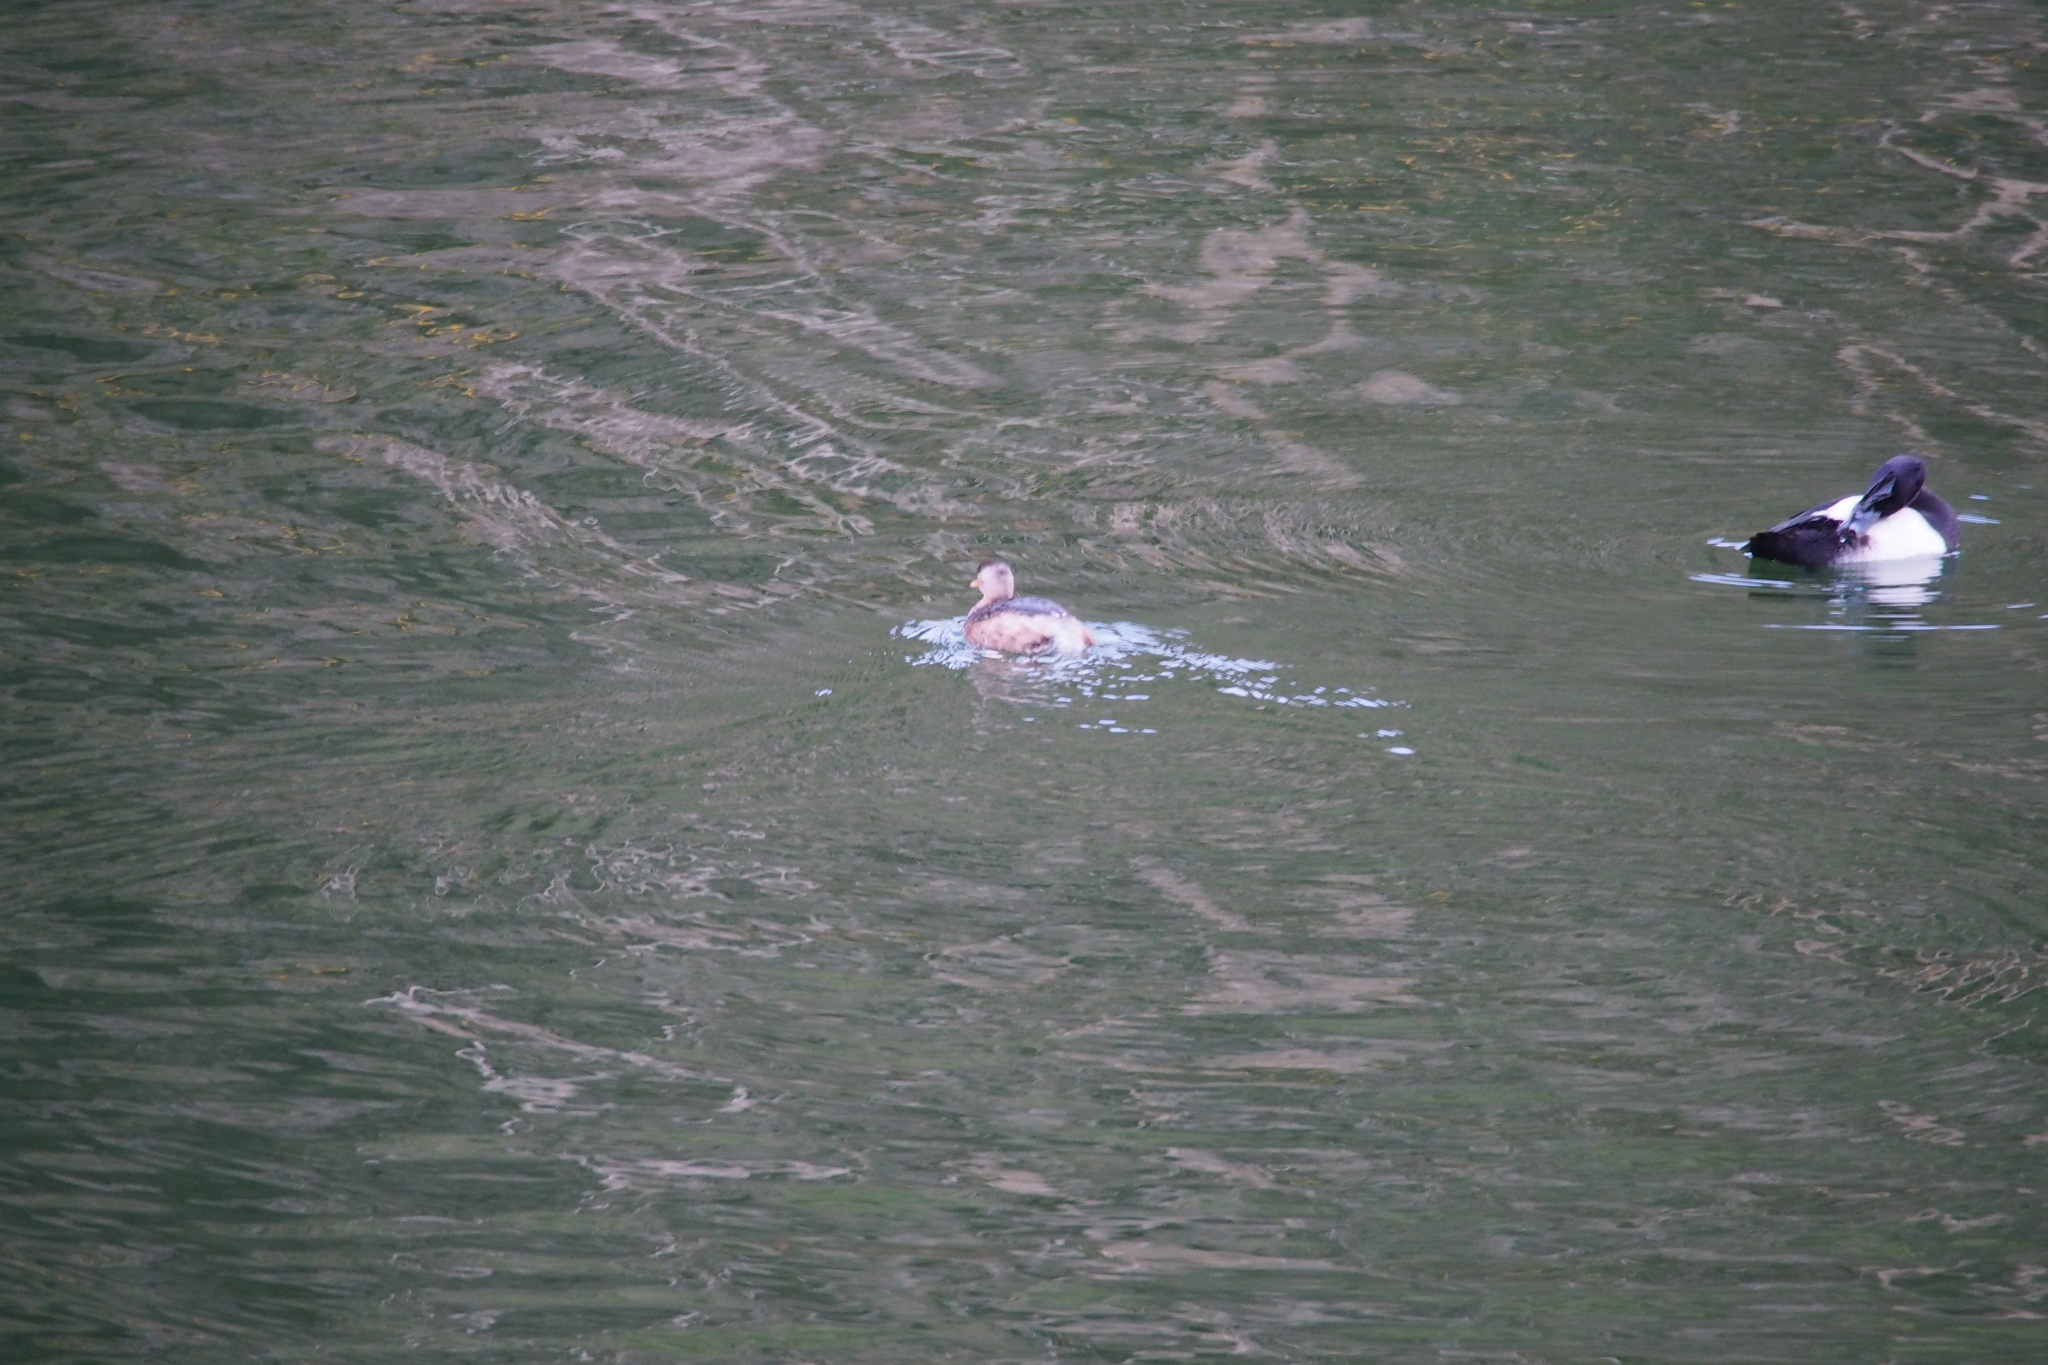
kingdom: Animalia
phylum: Chordata
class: Aves
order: Podicipediformes
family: Podicipedidae
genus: Tachybaptus
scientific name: Tachybaptus ruficollis
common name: Little grebe
